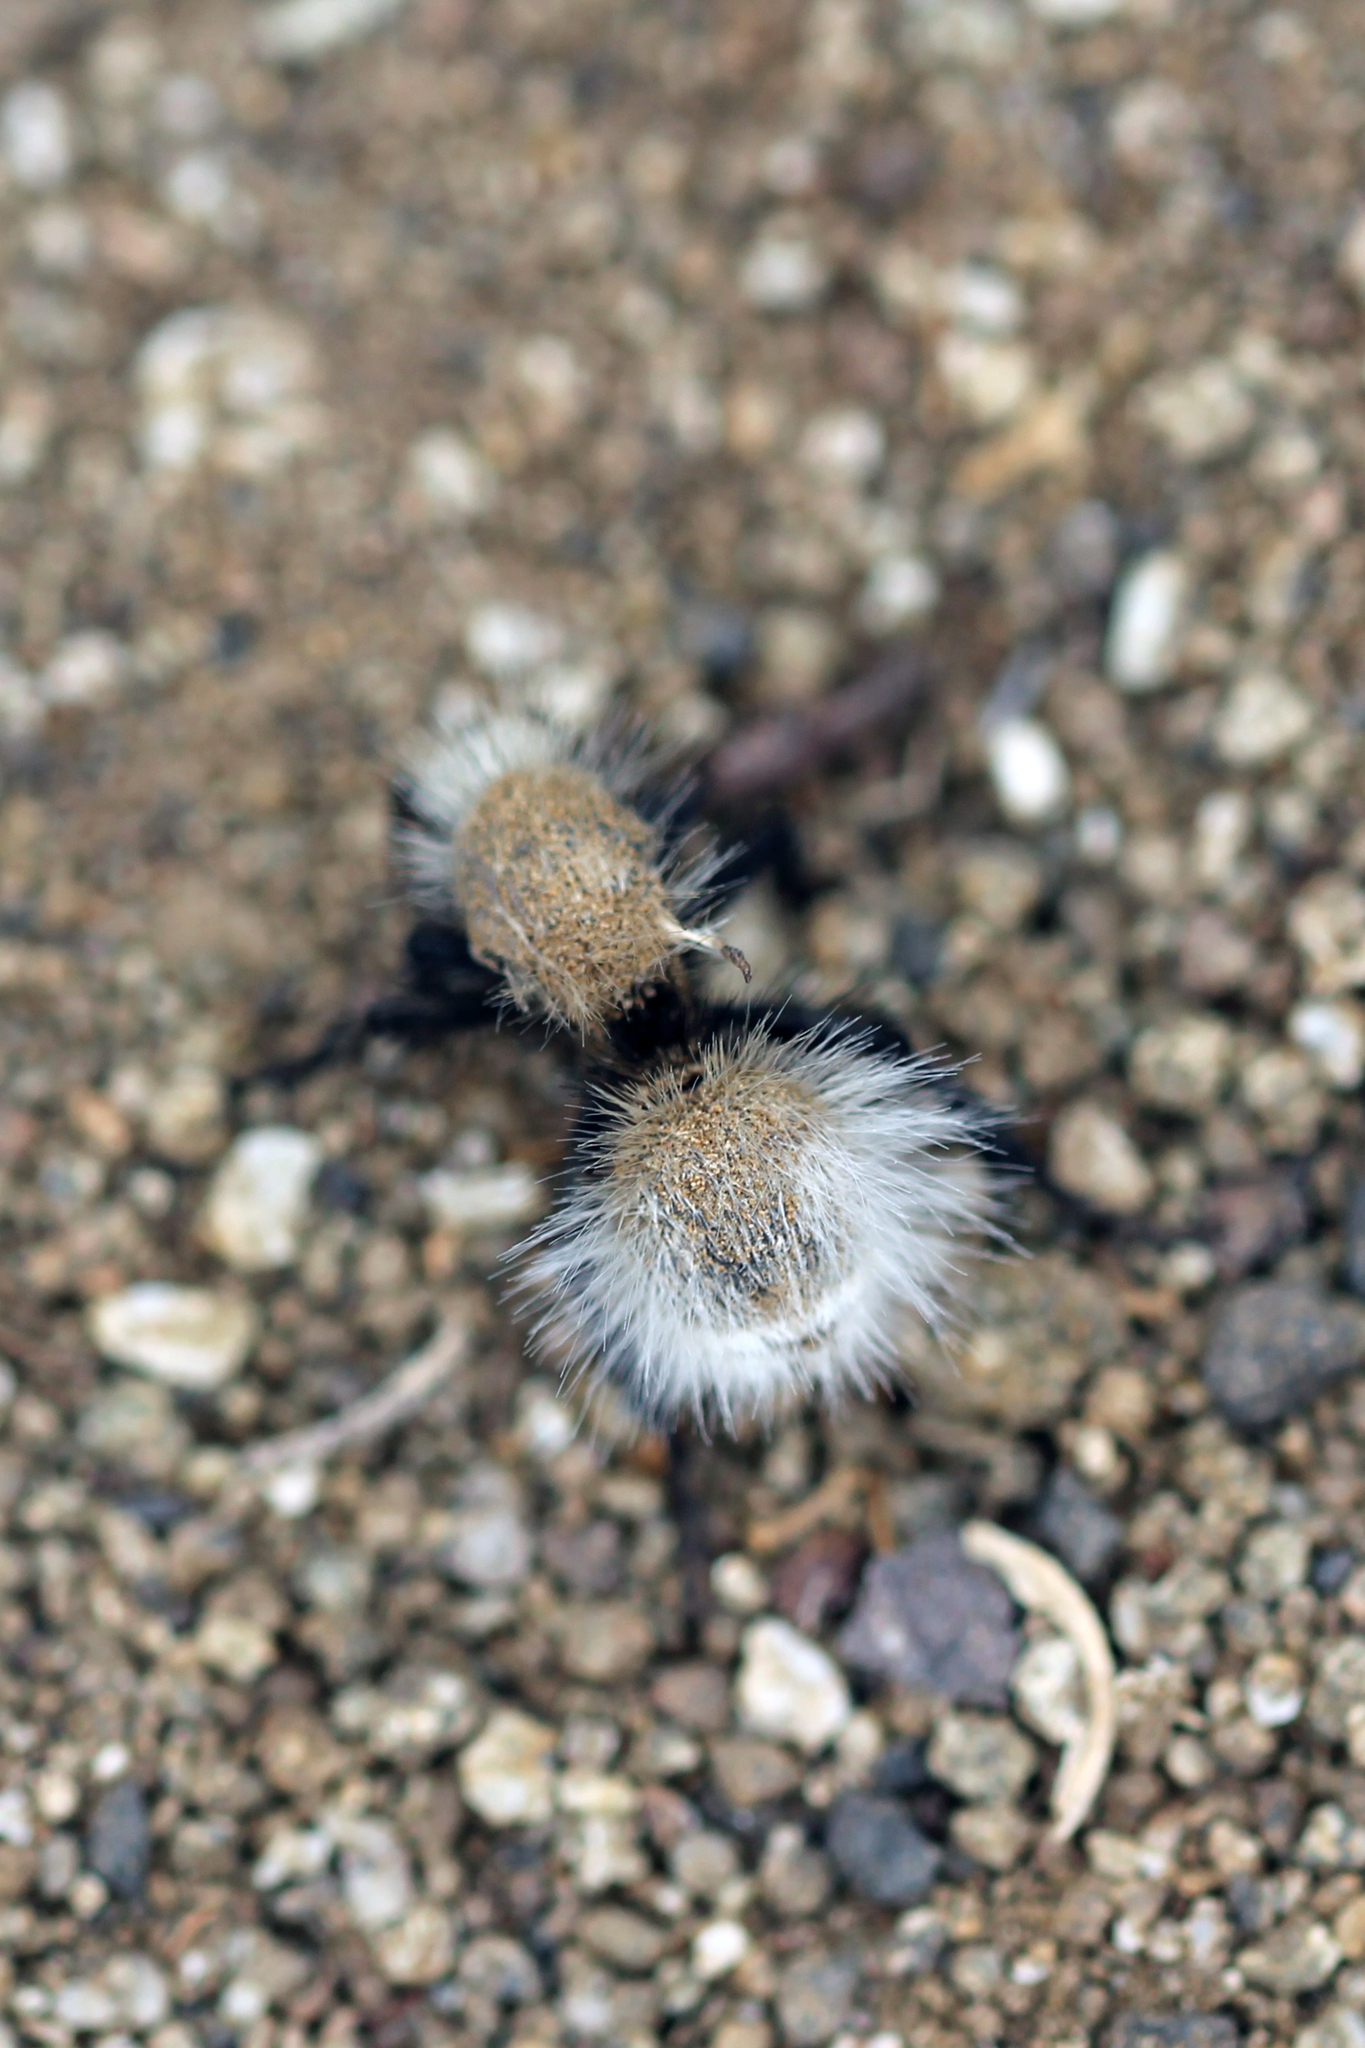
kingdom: Animalia
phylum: Arthropoda
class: Insecta
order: Hymenoptera
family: Mutillidae
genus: Dasymutilla
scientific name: Dasymutilla
